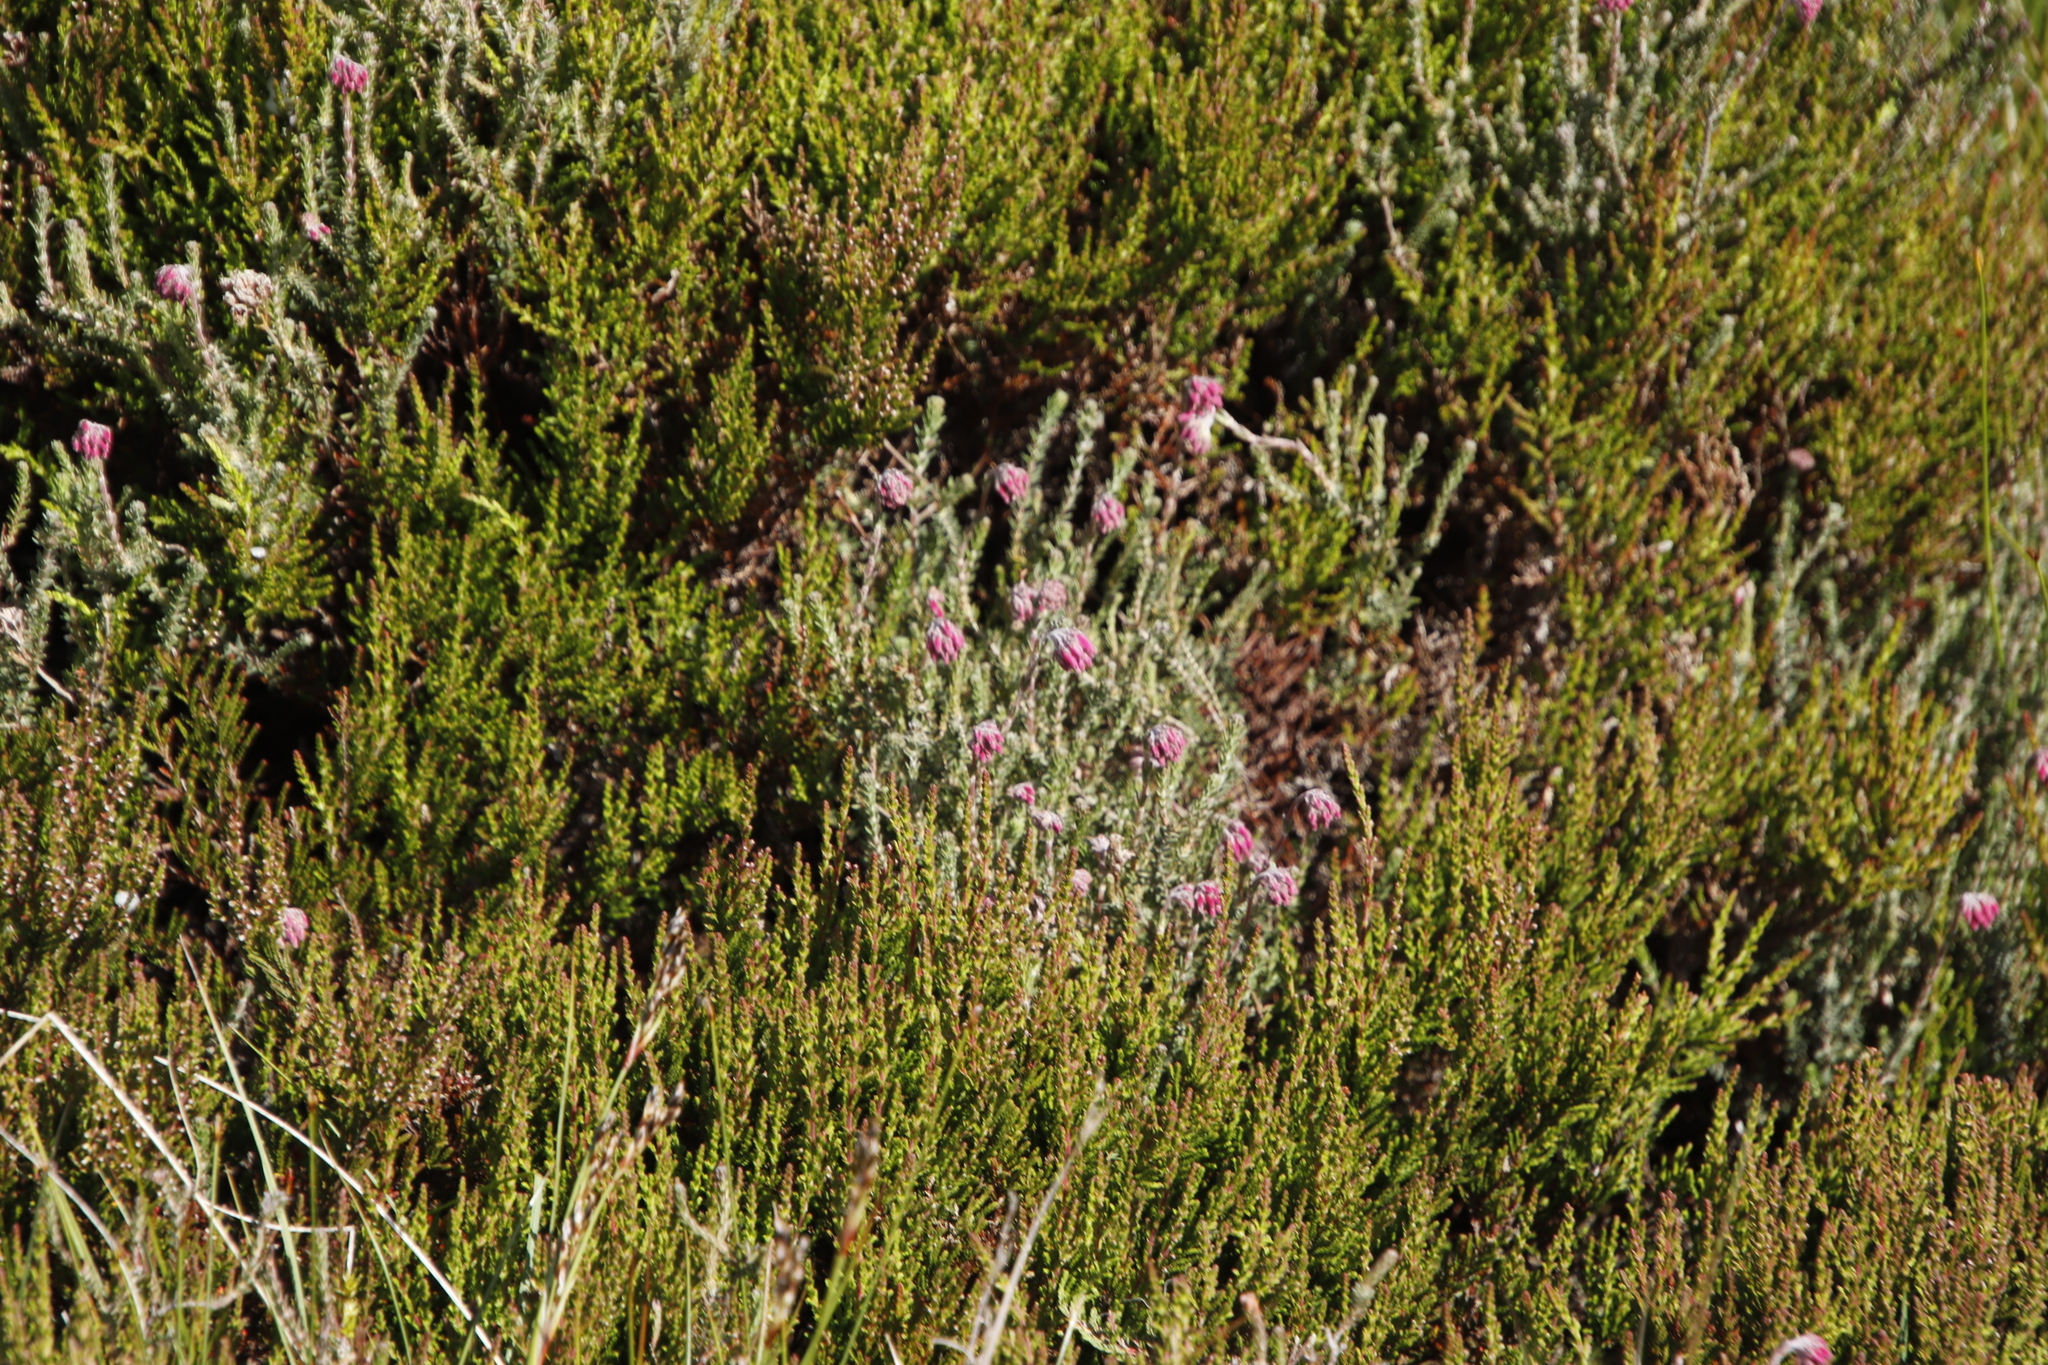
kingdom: Plantae
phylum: Tracheophyta
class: Magnoliopsida
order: Ericales
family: Ericaceae
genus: Erica
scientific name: Erica tetralix
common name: Cross-leaved heath
